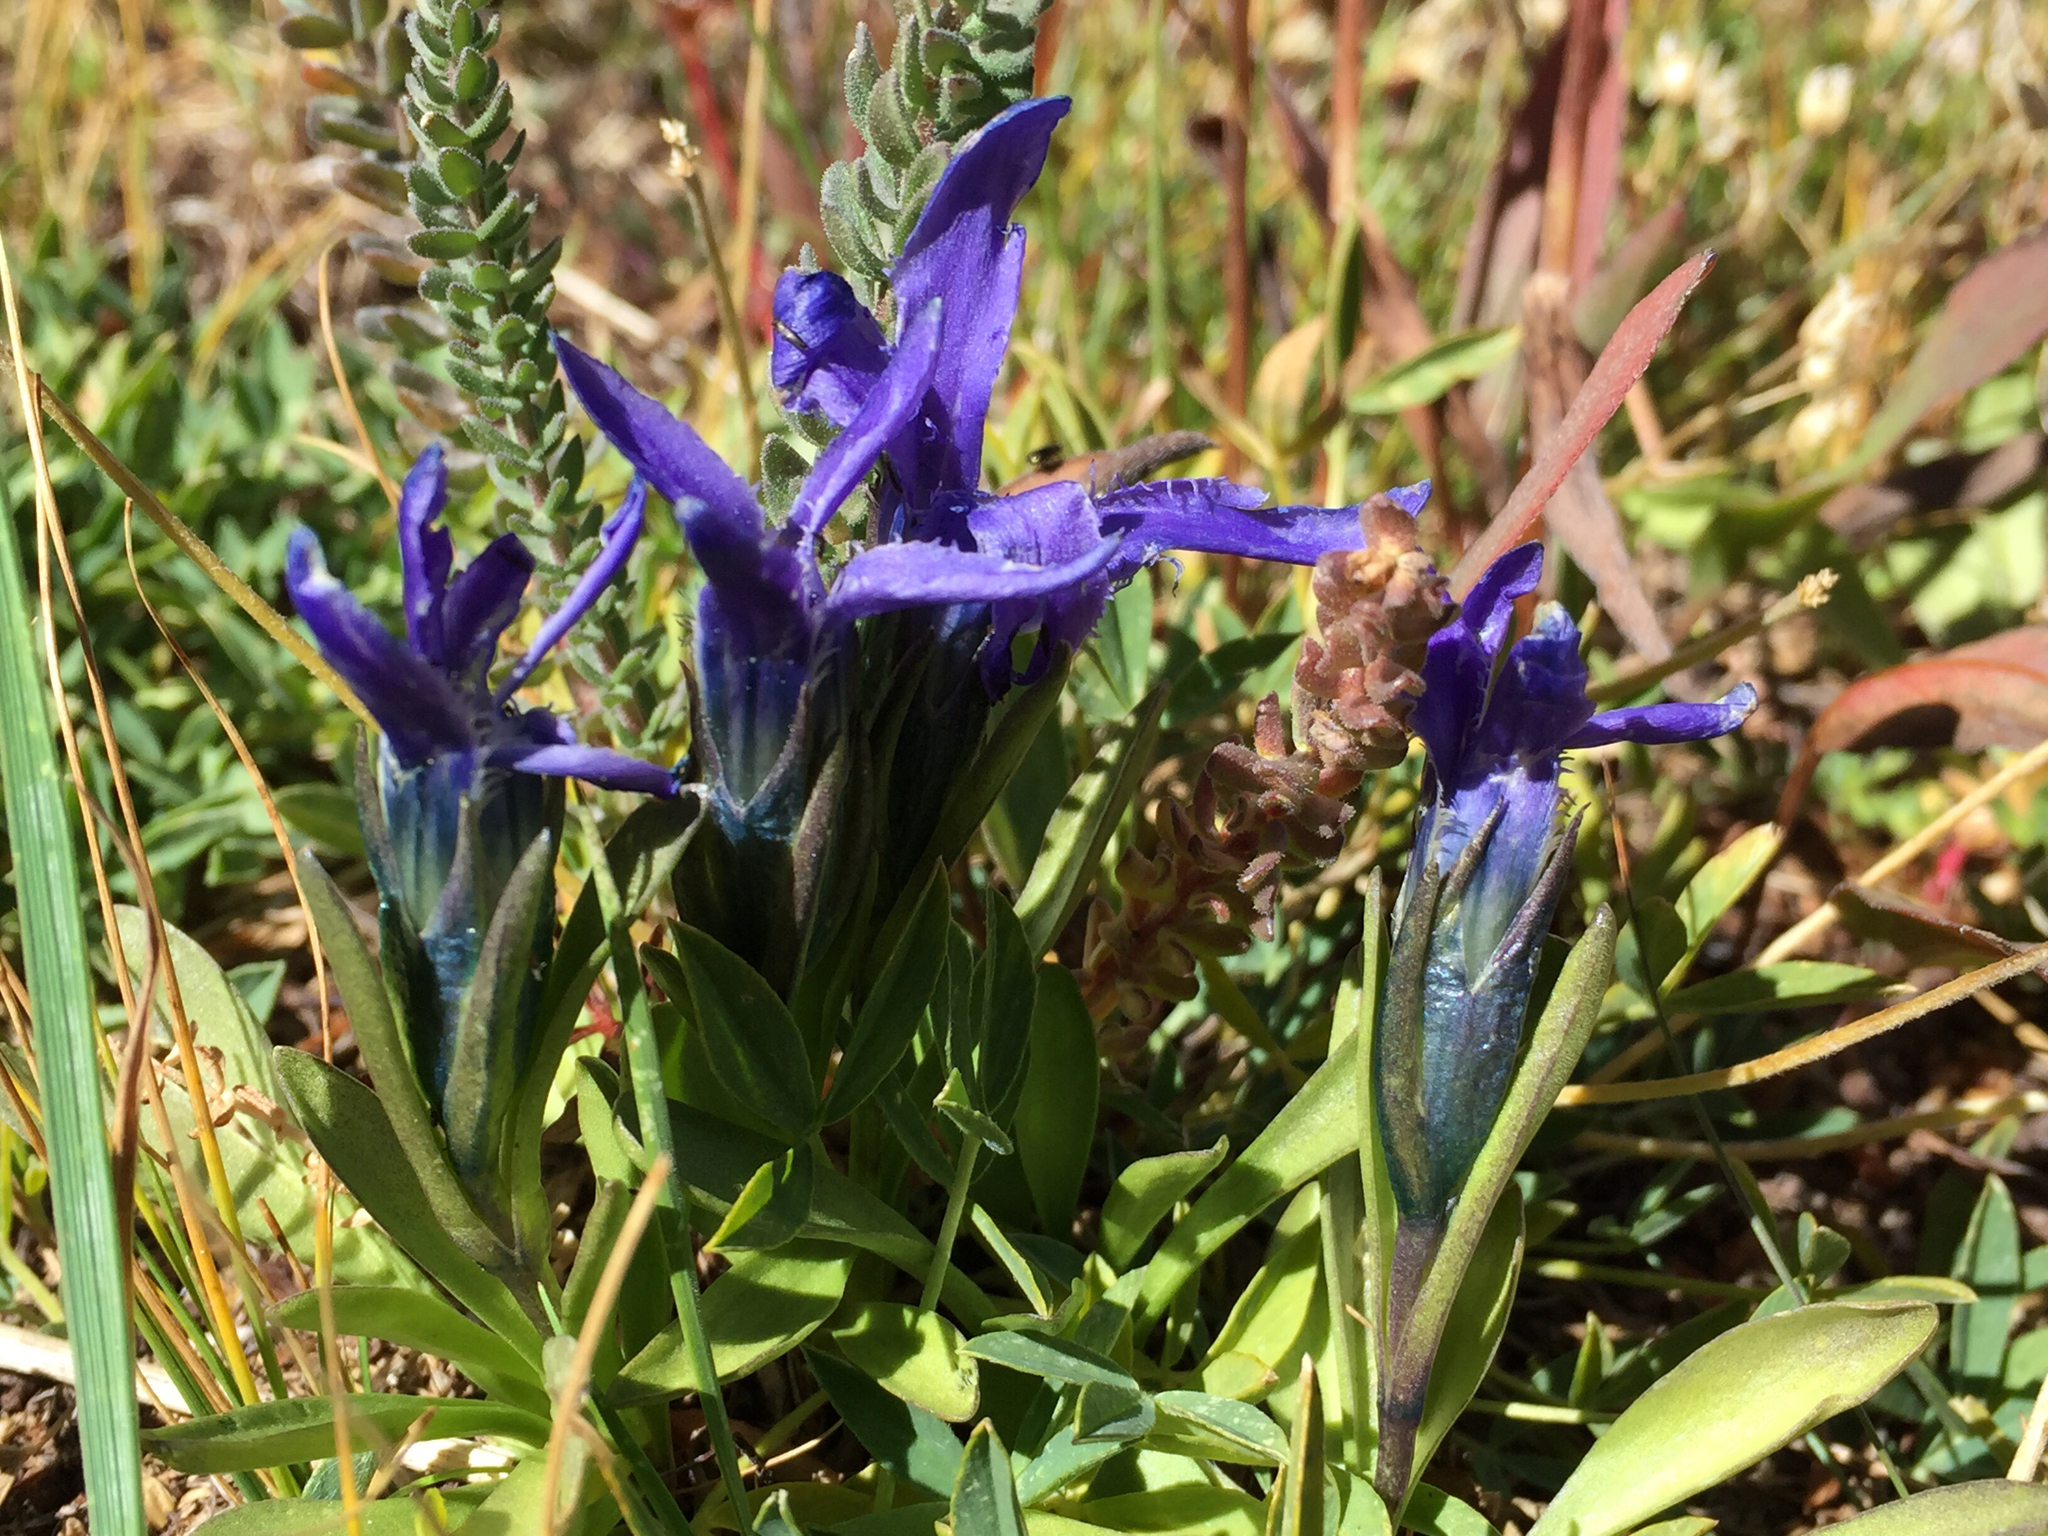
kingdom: Plantae
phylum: Tracheophyta
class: Magnoliopsida
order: Gentianales
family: Gentianaceae
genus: Gentianopsis
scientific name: Gentianopsis barbellata
